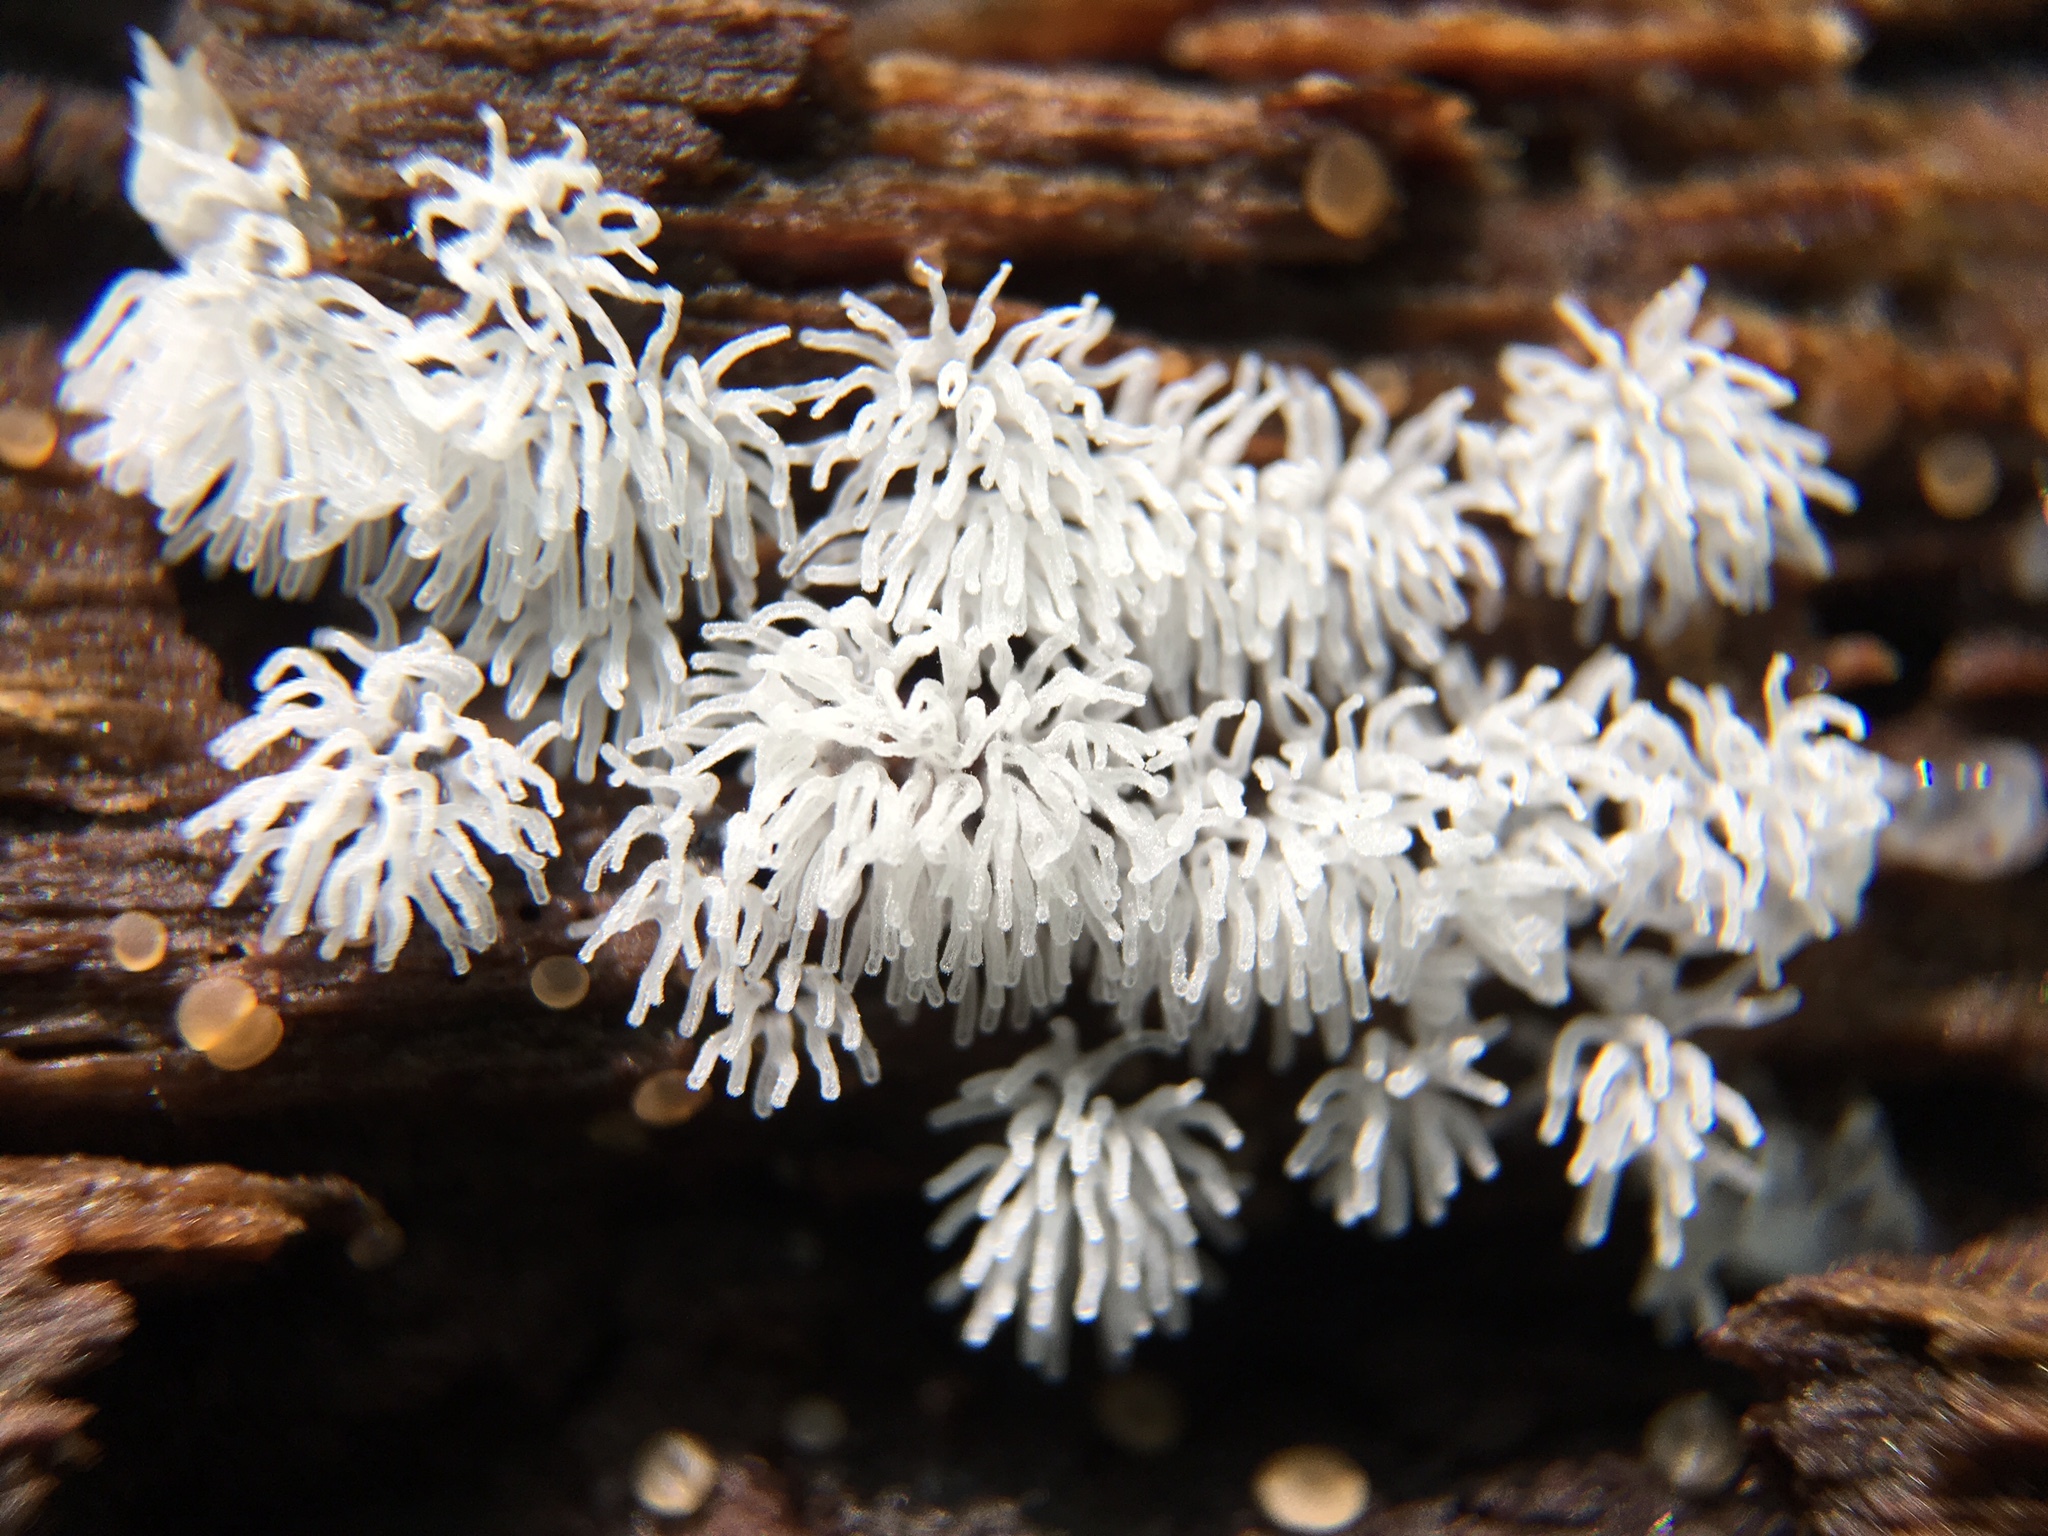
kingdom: Protozoa
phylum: Mycetozoa
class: Protosteliomycetes
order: Ceratiomyxales
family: Ceratiomyxaceae
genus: Ceratiomyxa
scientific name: Ceratiomyxa fruticulosa
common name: Honeycomb coral slime mold
